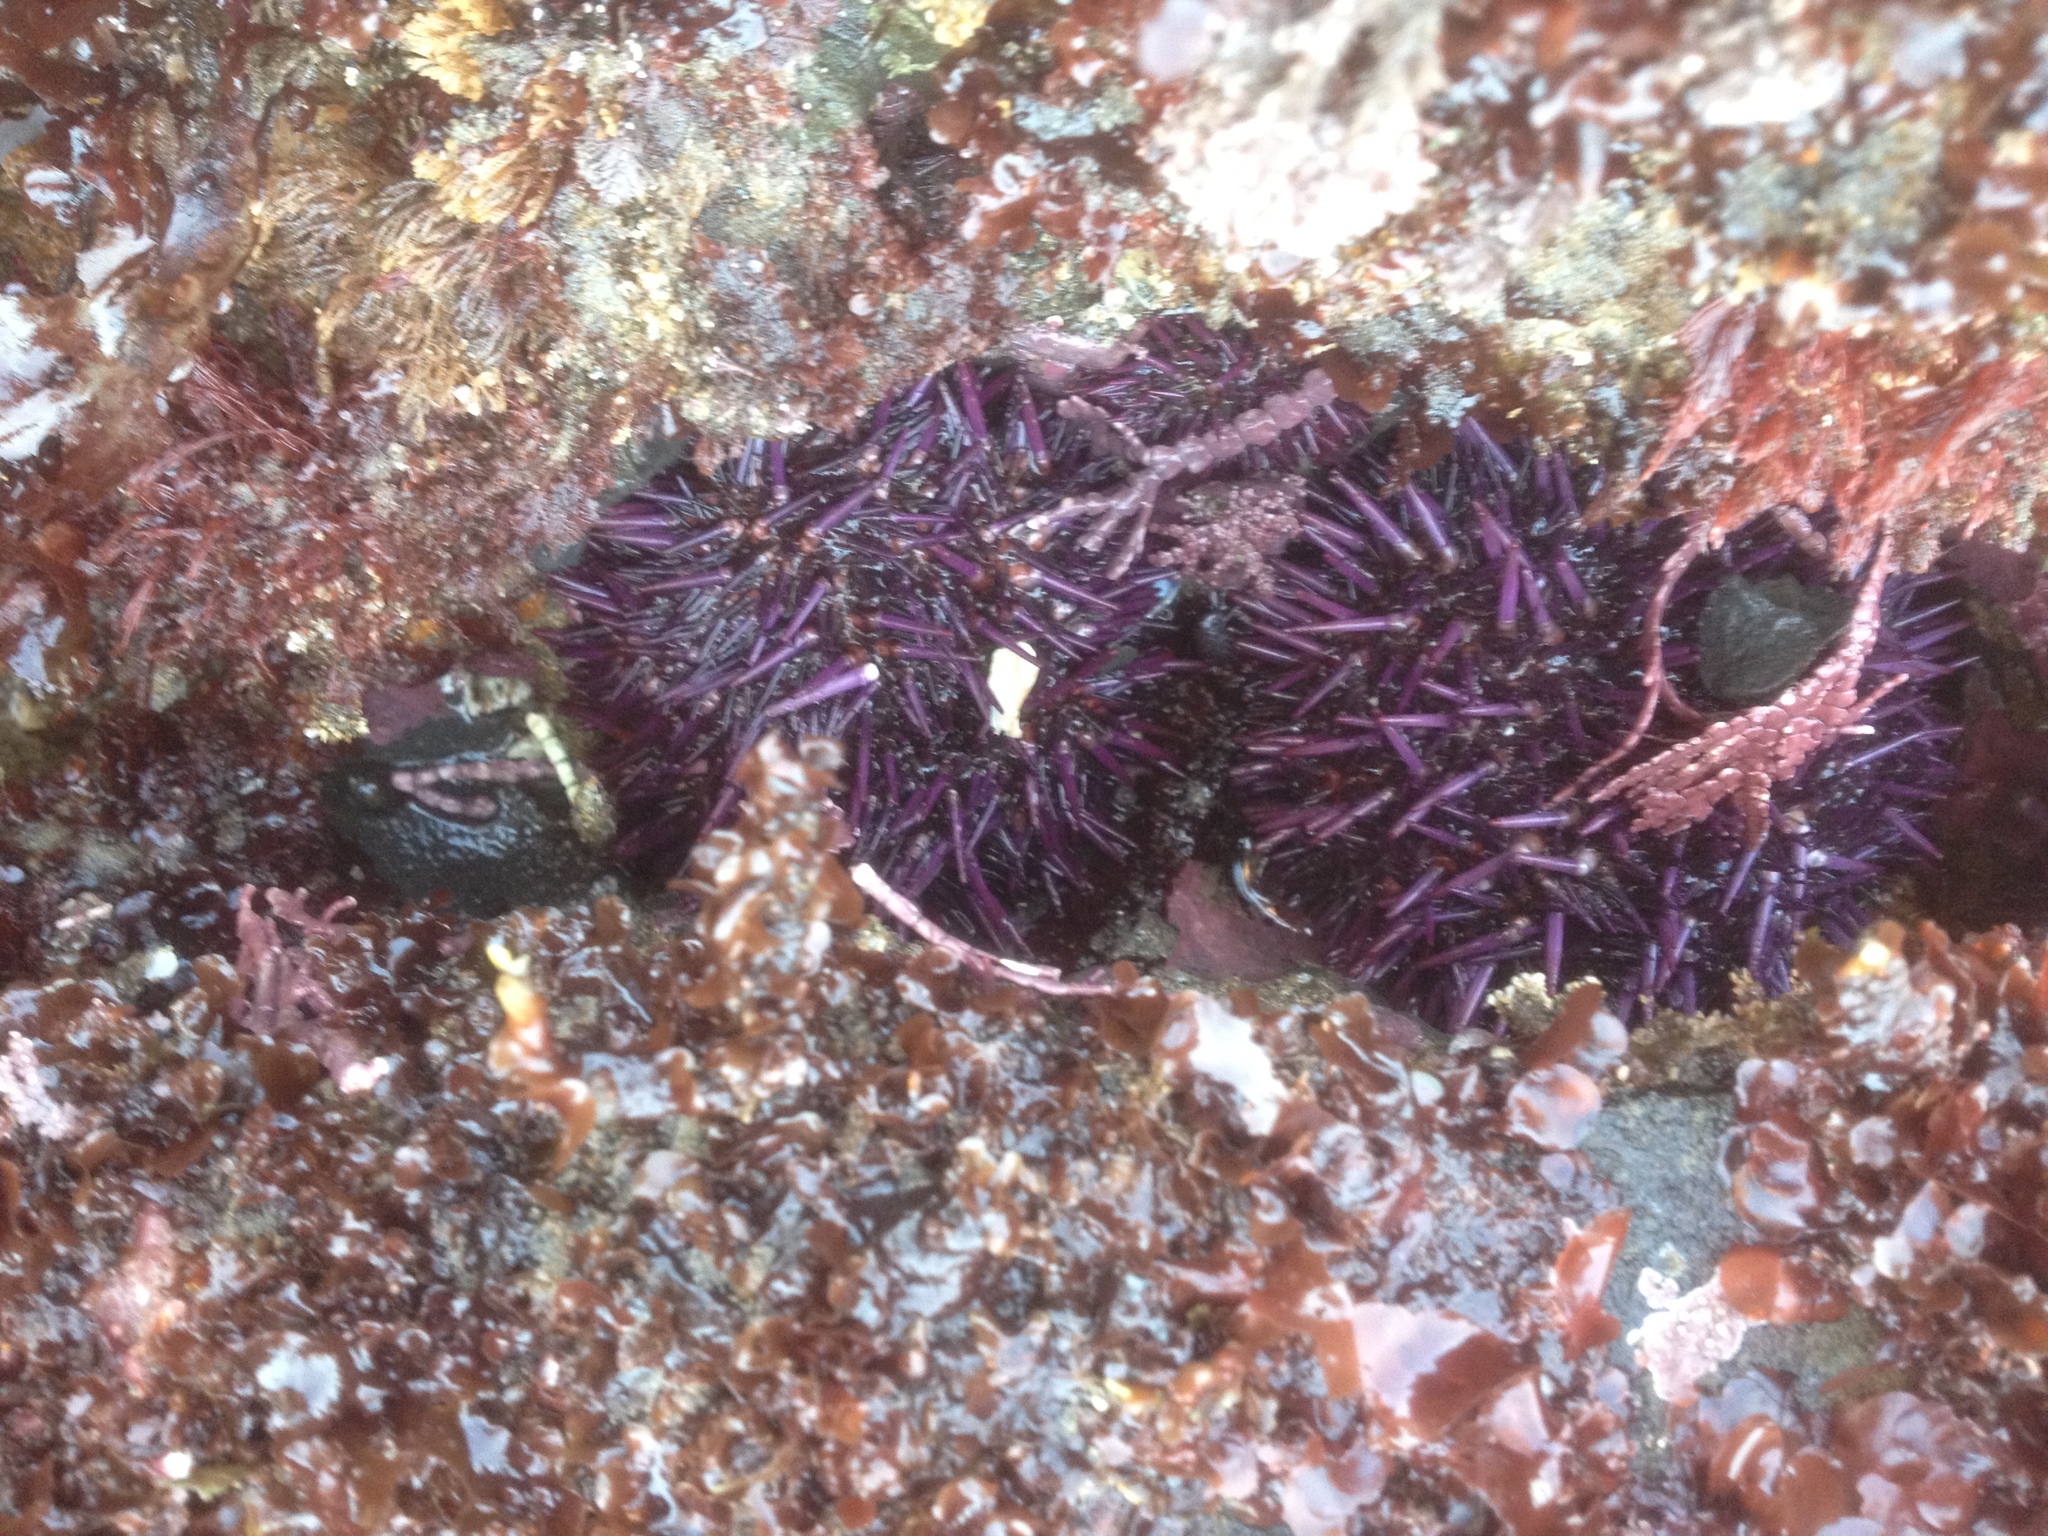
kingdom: Animalia
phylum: Echinodermata
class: Echinoidea
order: Camarodonta
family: Strongylocentrotidae
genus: Strongylocentrotus
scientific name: Strongylocentrotus purpuratus
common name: Purple sea urchin
